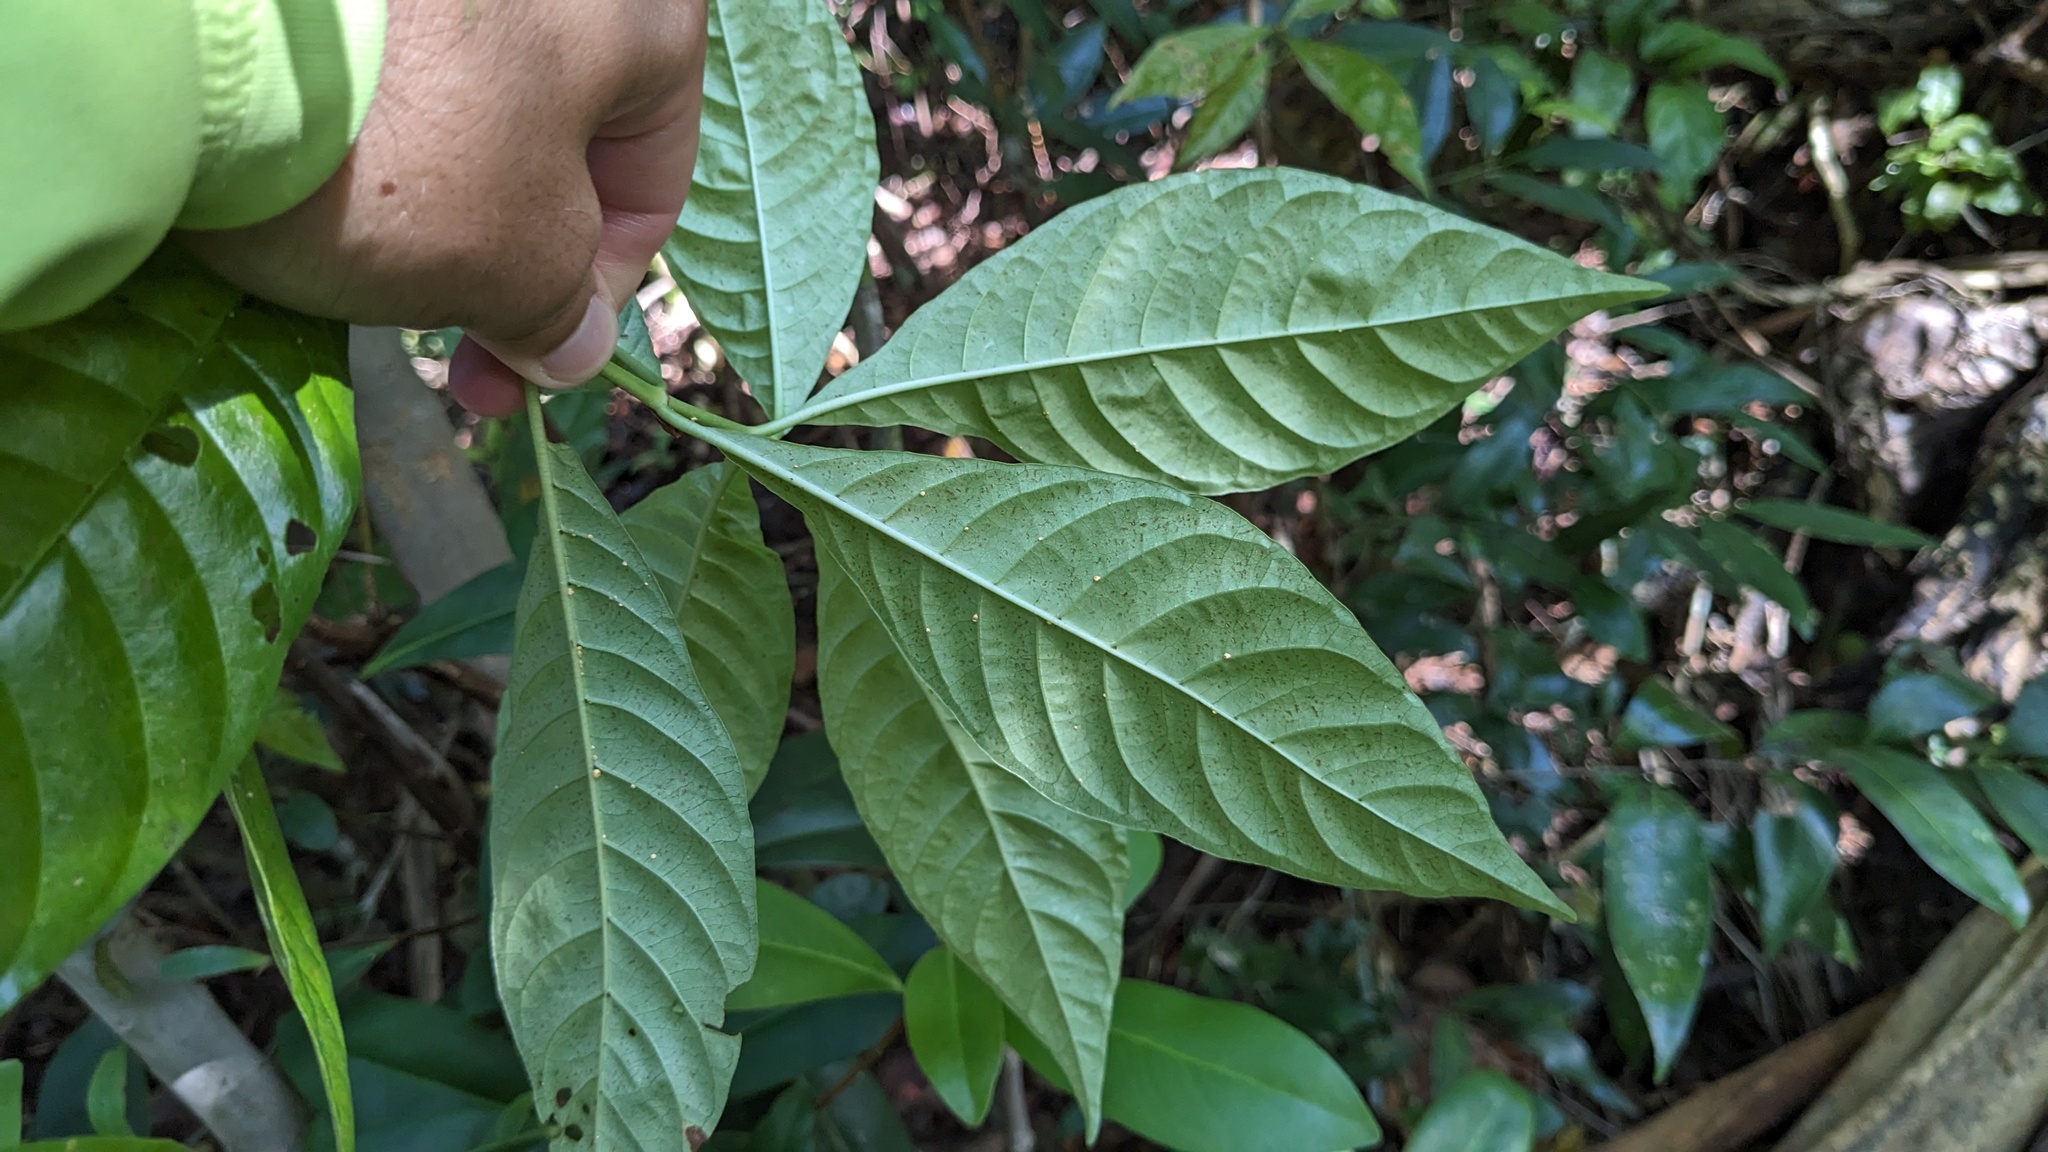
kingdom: Plantae
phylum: Tracheophyta
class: Magnoliopsida
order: Gentianales
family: Rubiaceae
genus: Psychotria
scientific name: Psychotria nervosa
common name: Bastard cankerberry
